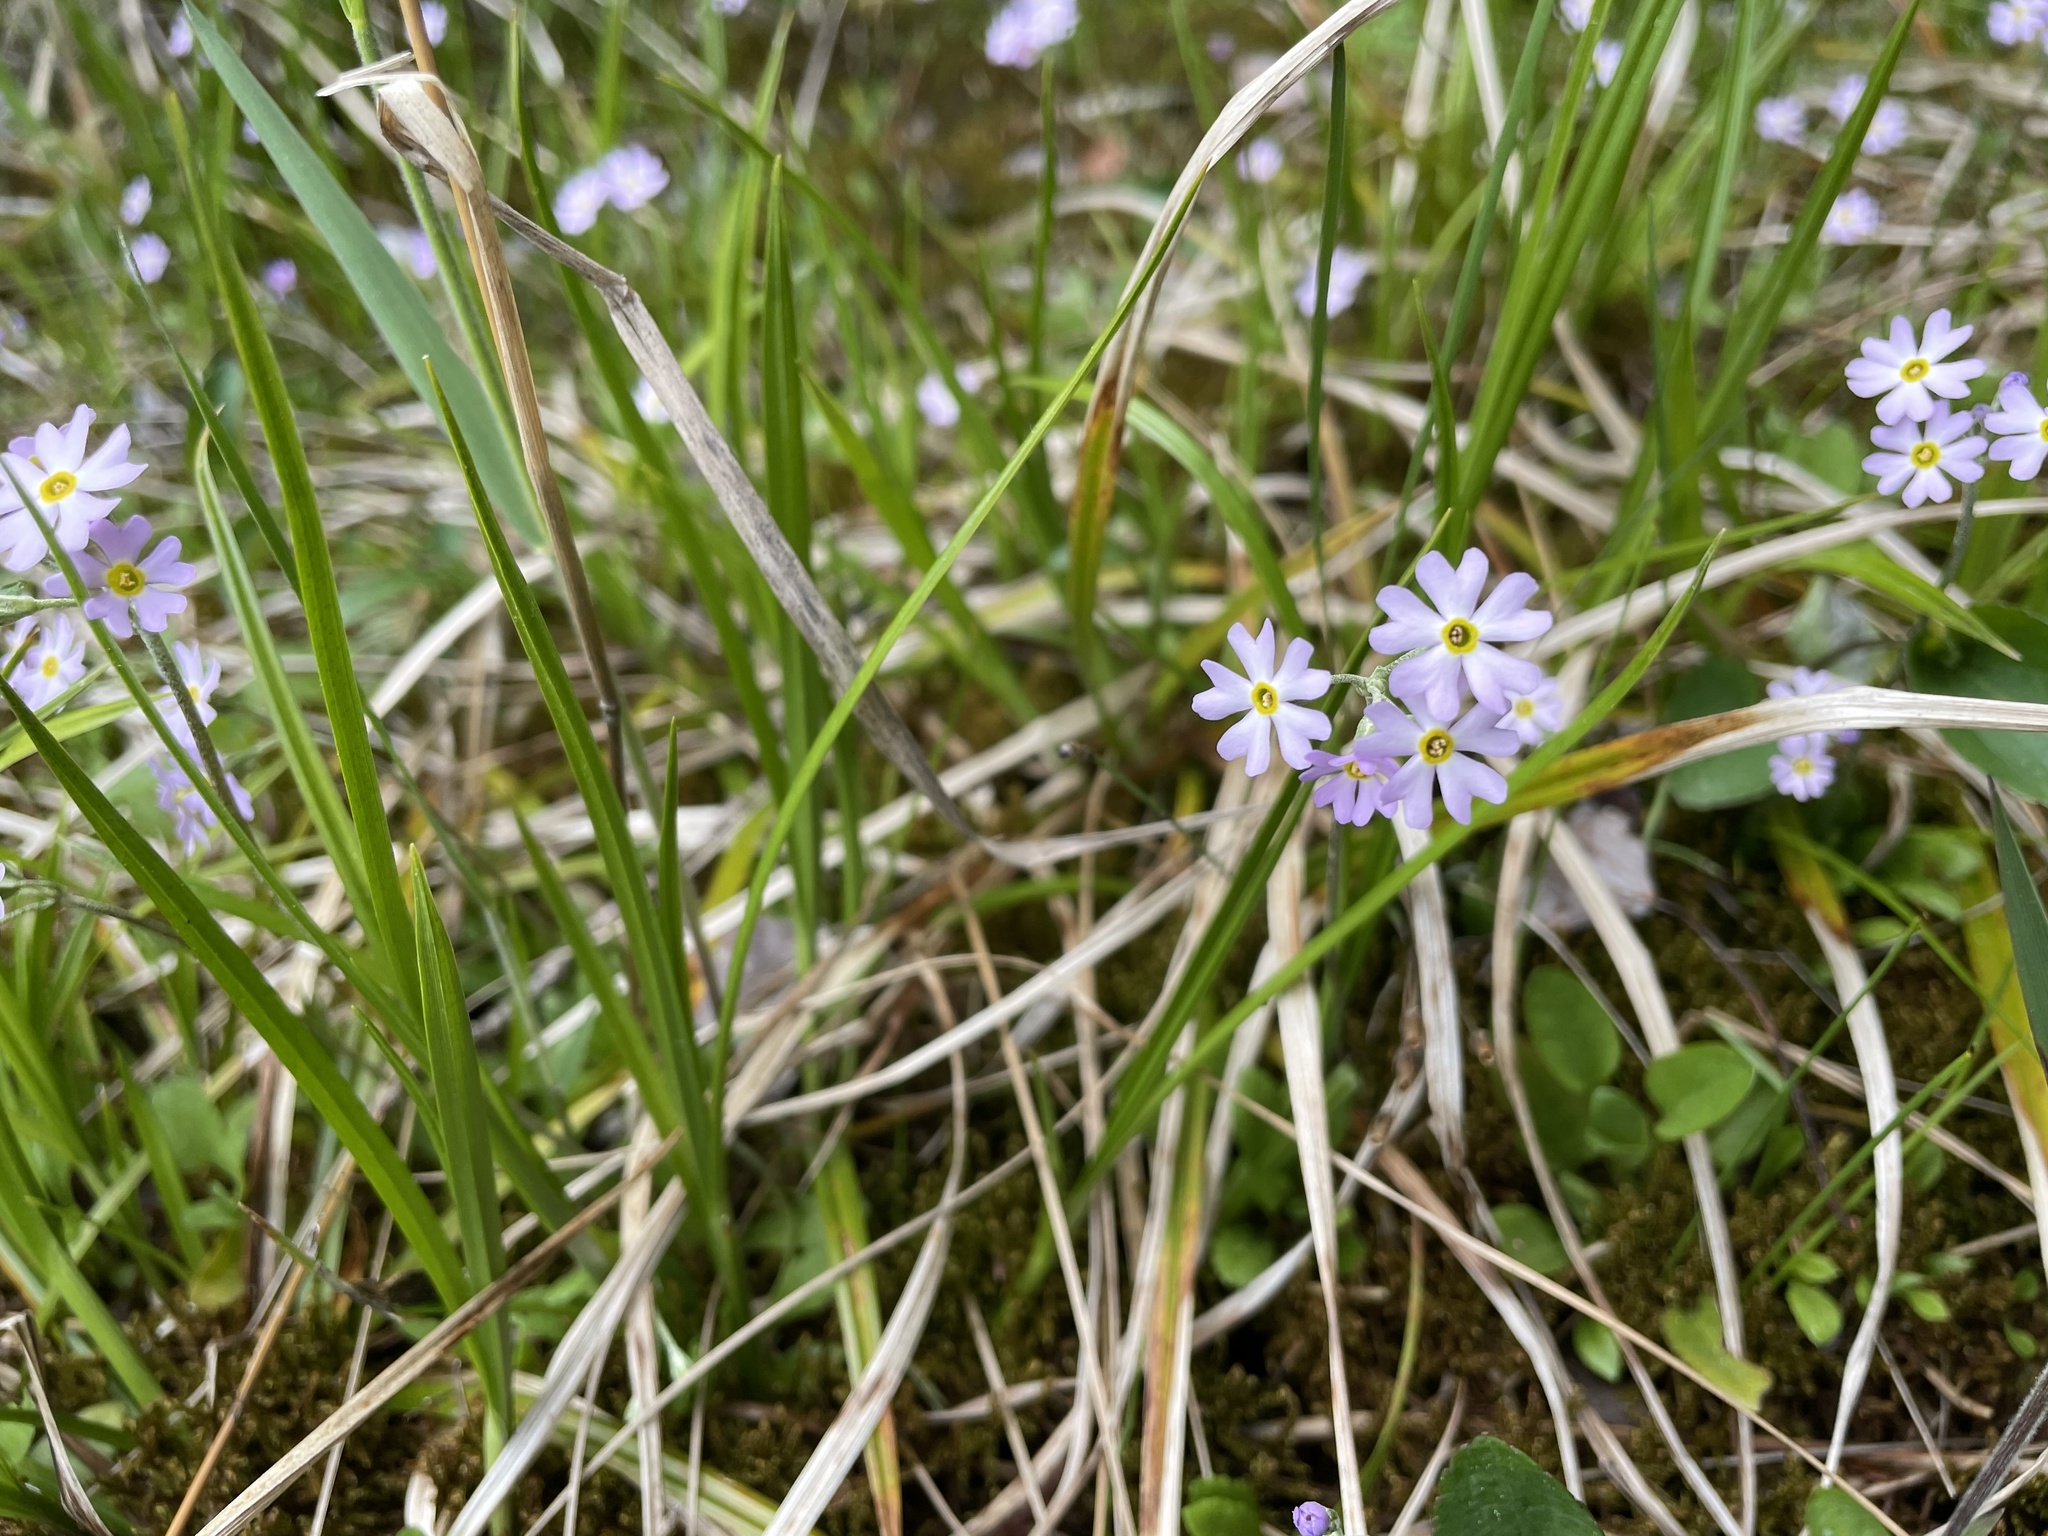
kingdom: Plantae
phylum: Tracheophyta
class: Magnoliopsida
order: Ericales
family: Primulaceae
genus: Primula
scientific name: Primula mistassinica
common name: Bird's-eye primrose
